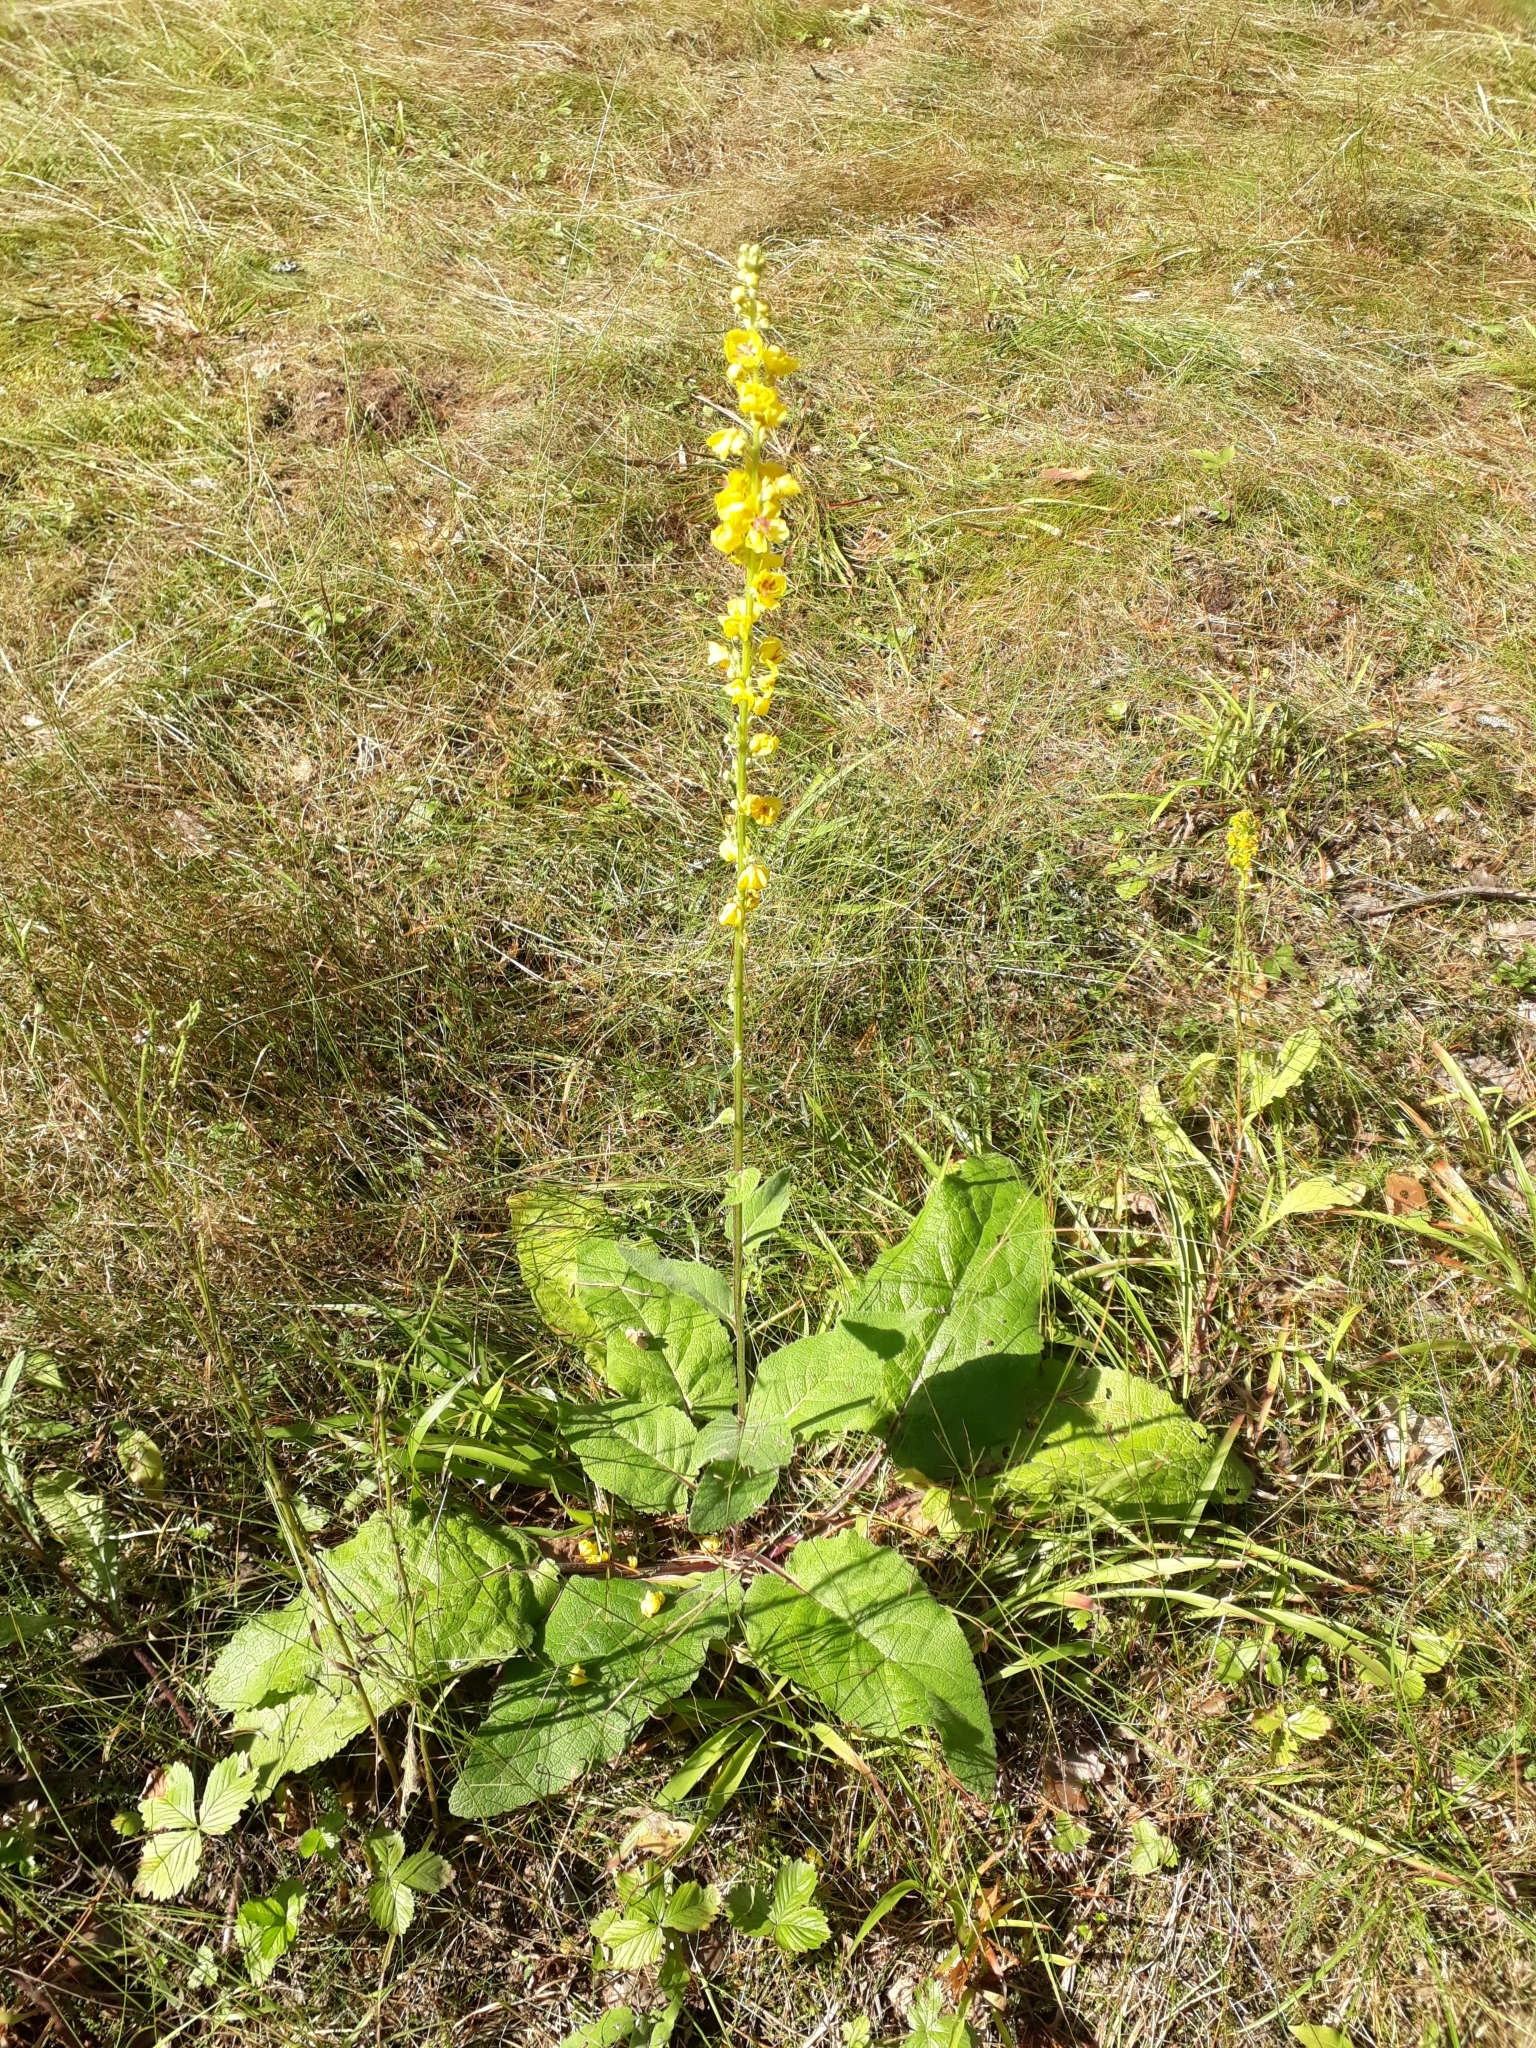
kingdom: Plantae
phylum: Tracheophyta
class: Magnoliopsida
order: Lamiales
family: Scrophulariaceae
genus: Verbascum
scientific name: Verbascum nigrum
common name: Dark mullein
